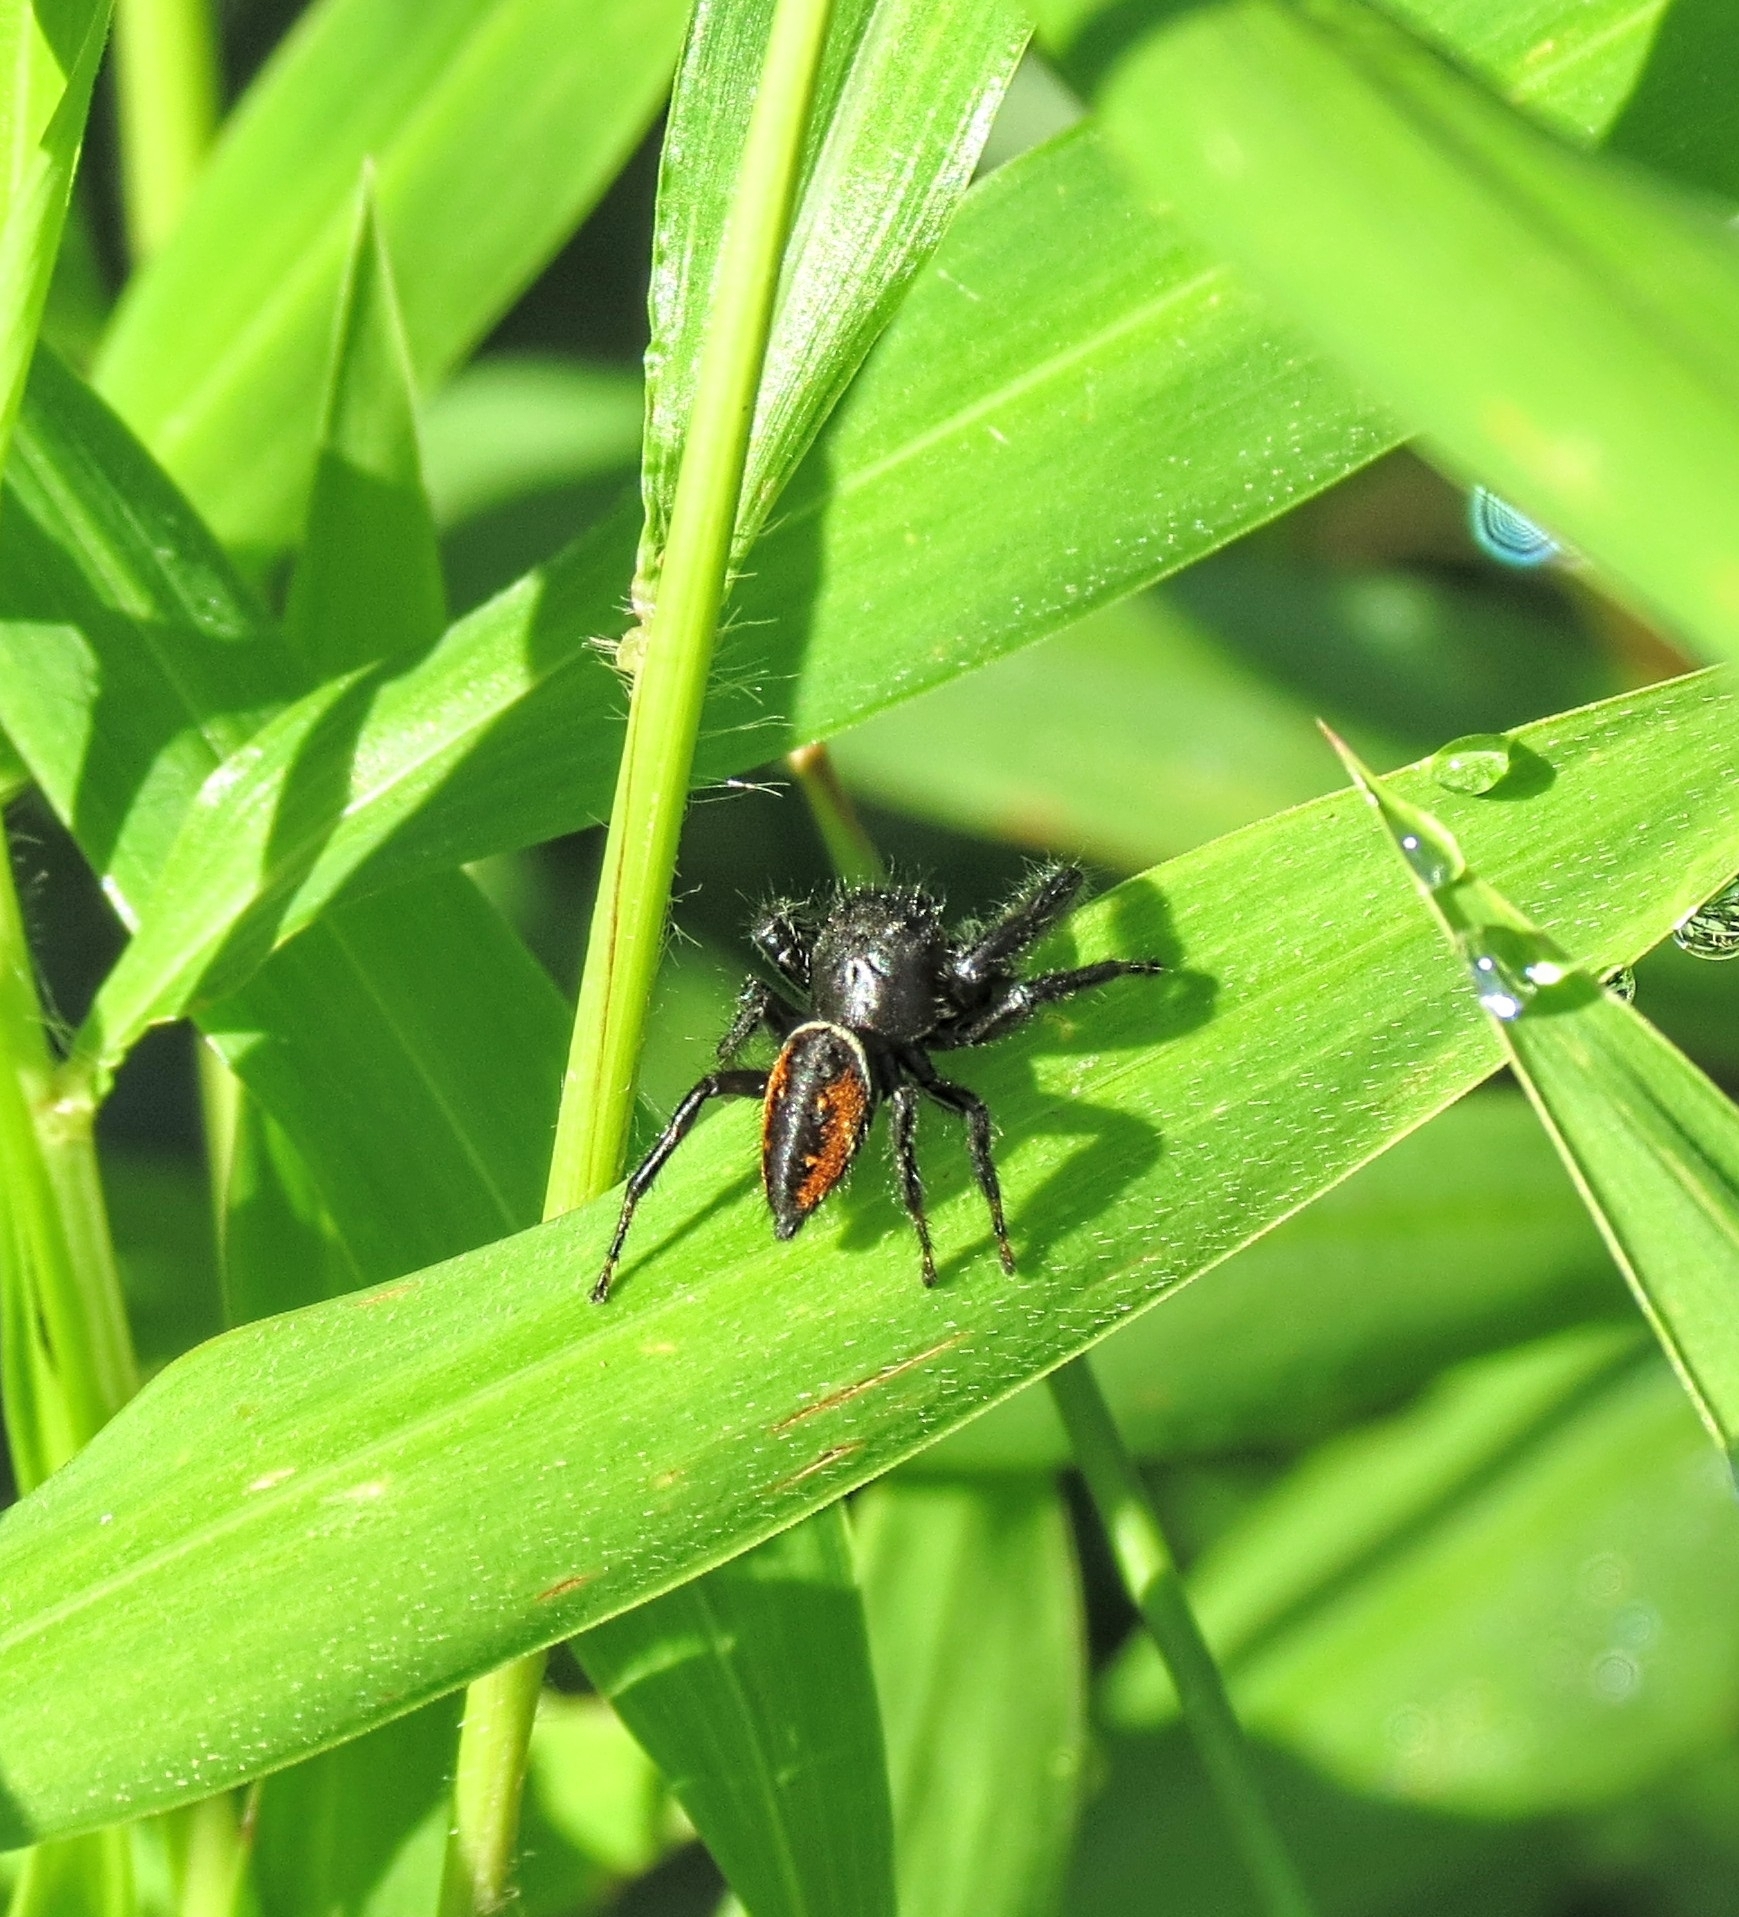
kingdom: Animalia
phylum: Arthropoda
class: Arachnida
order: Araneae
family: Salticidae
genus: Phidippus
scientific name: Phidippus clarus
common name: Brilliant jumping spider
